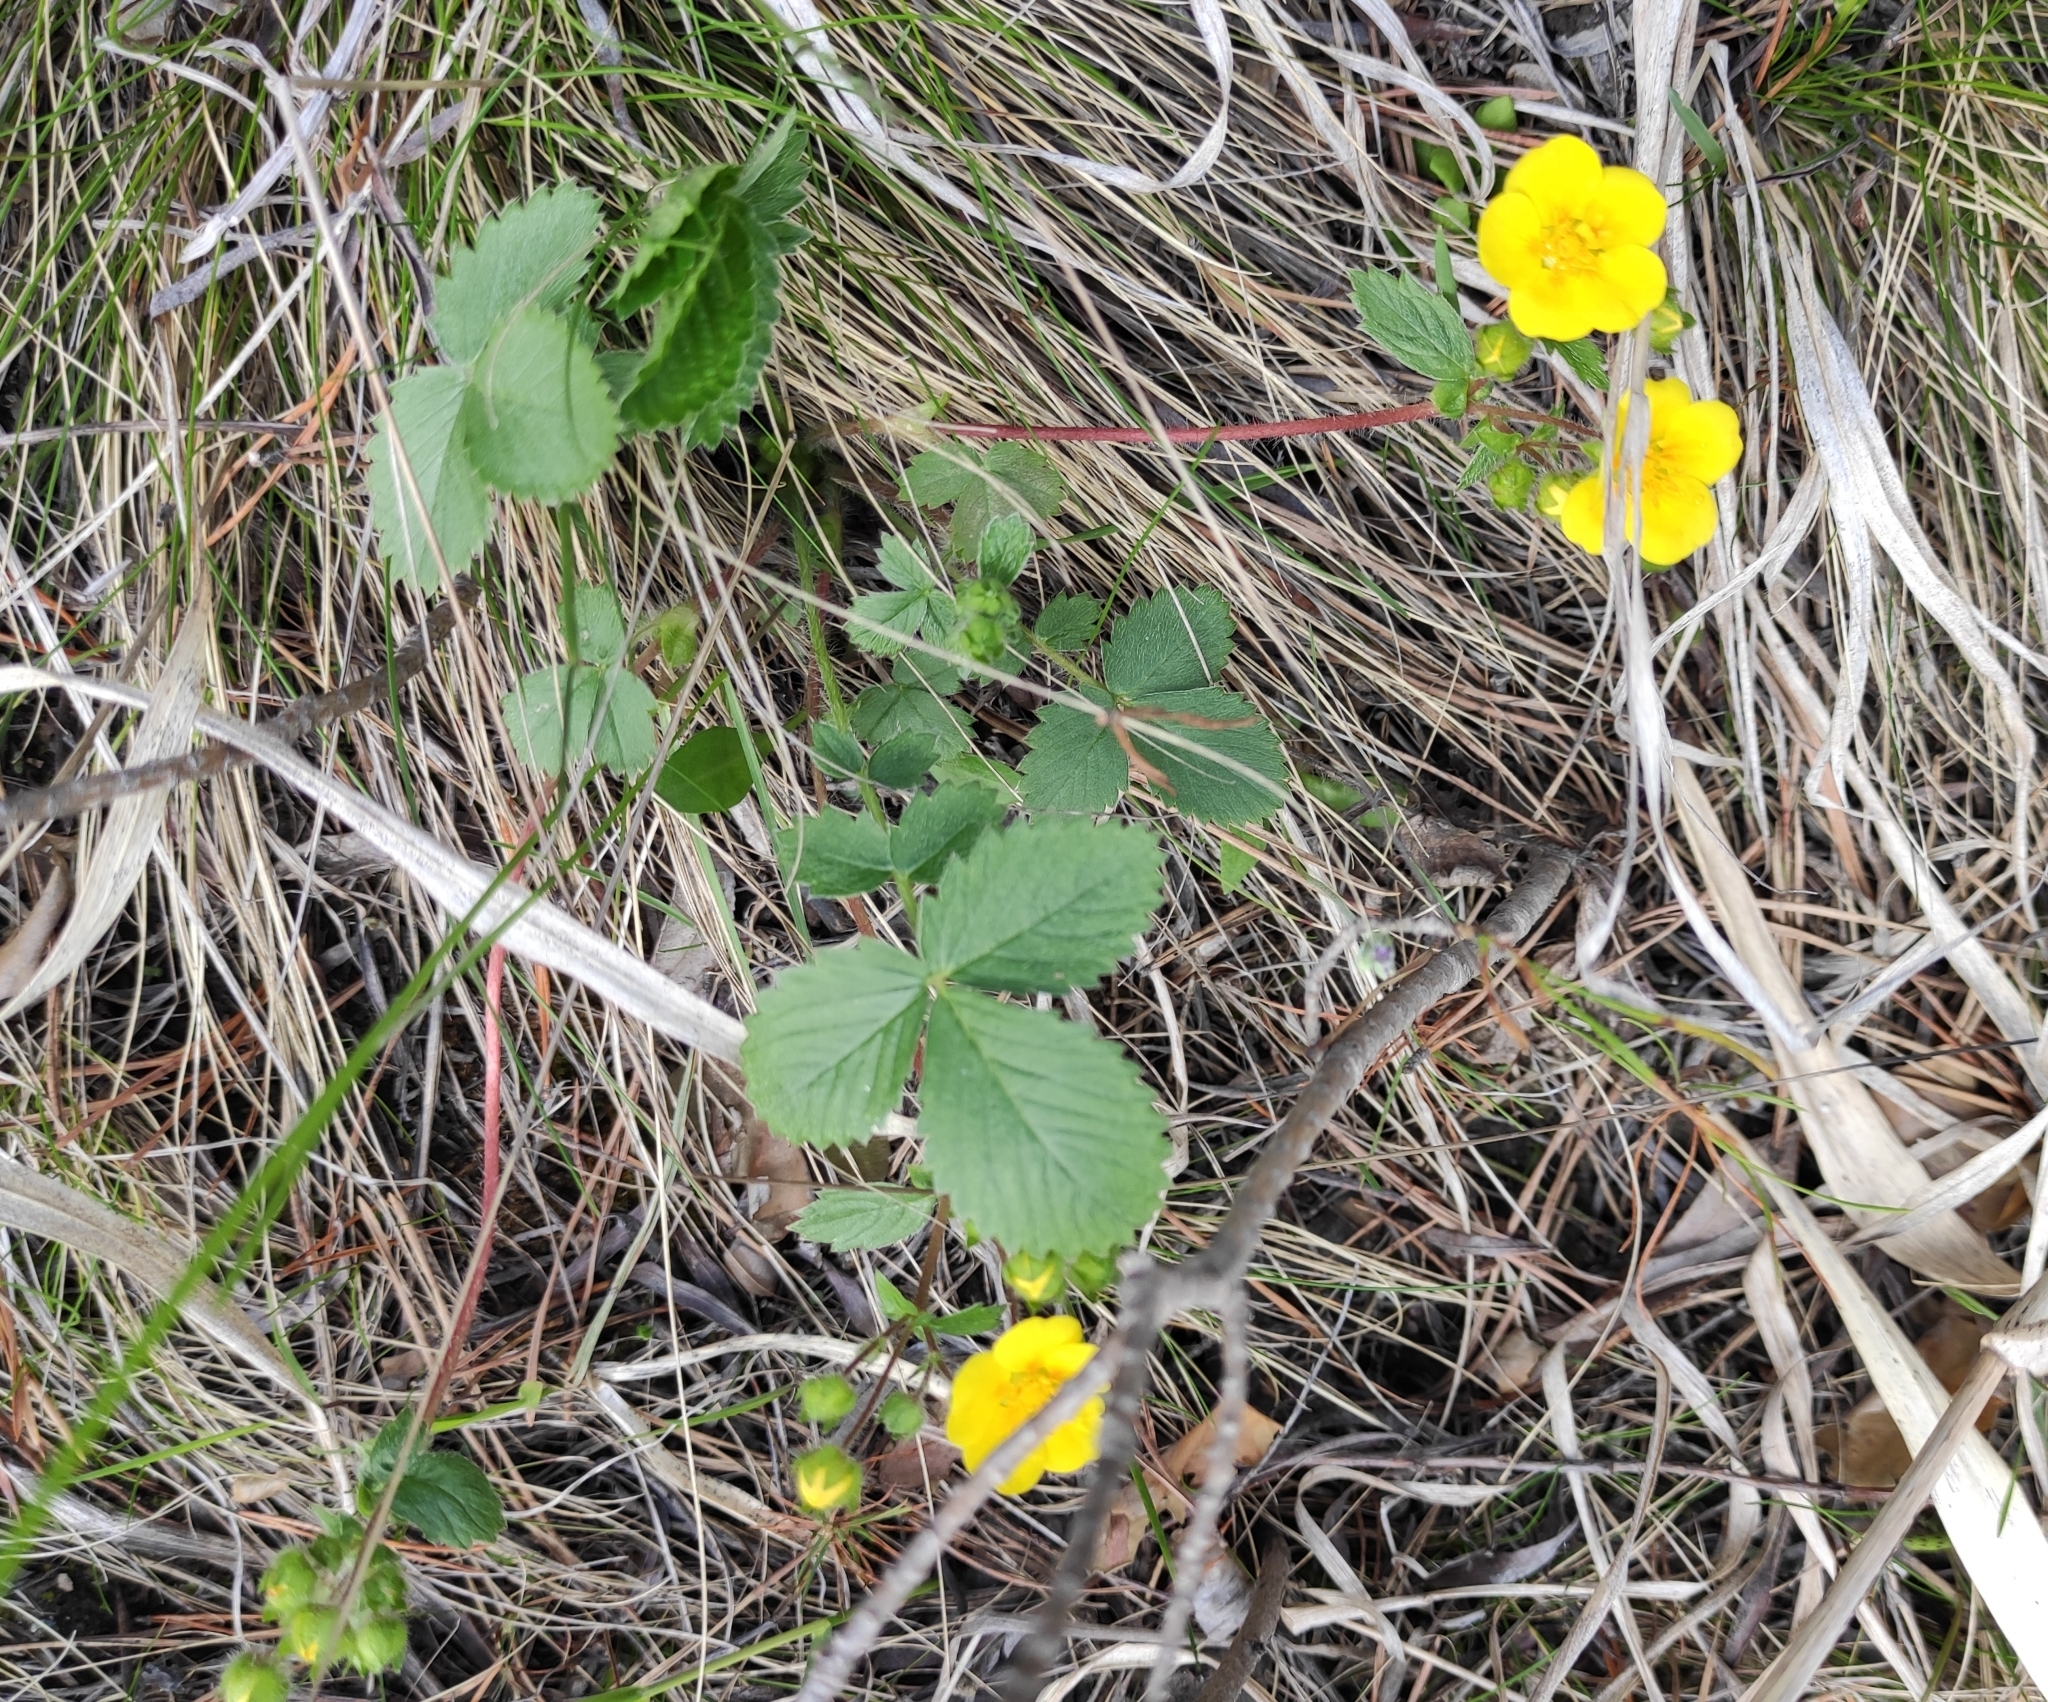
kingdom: Plantae
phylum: Tracheophyta
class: Magnoliopsida
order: Rosales
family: Rosaceae
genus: Potentilla
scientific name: Potentilla fragarioides
